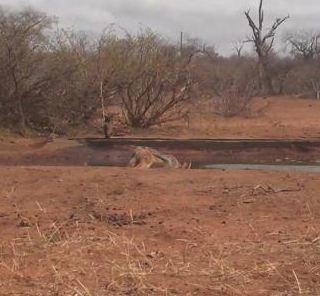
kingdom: Animalia
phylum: Chordata
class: Mammalia
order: Carnivora
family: Canidae
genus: Lupulella
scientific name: Lupulella
